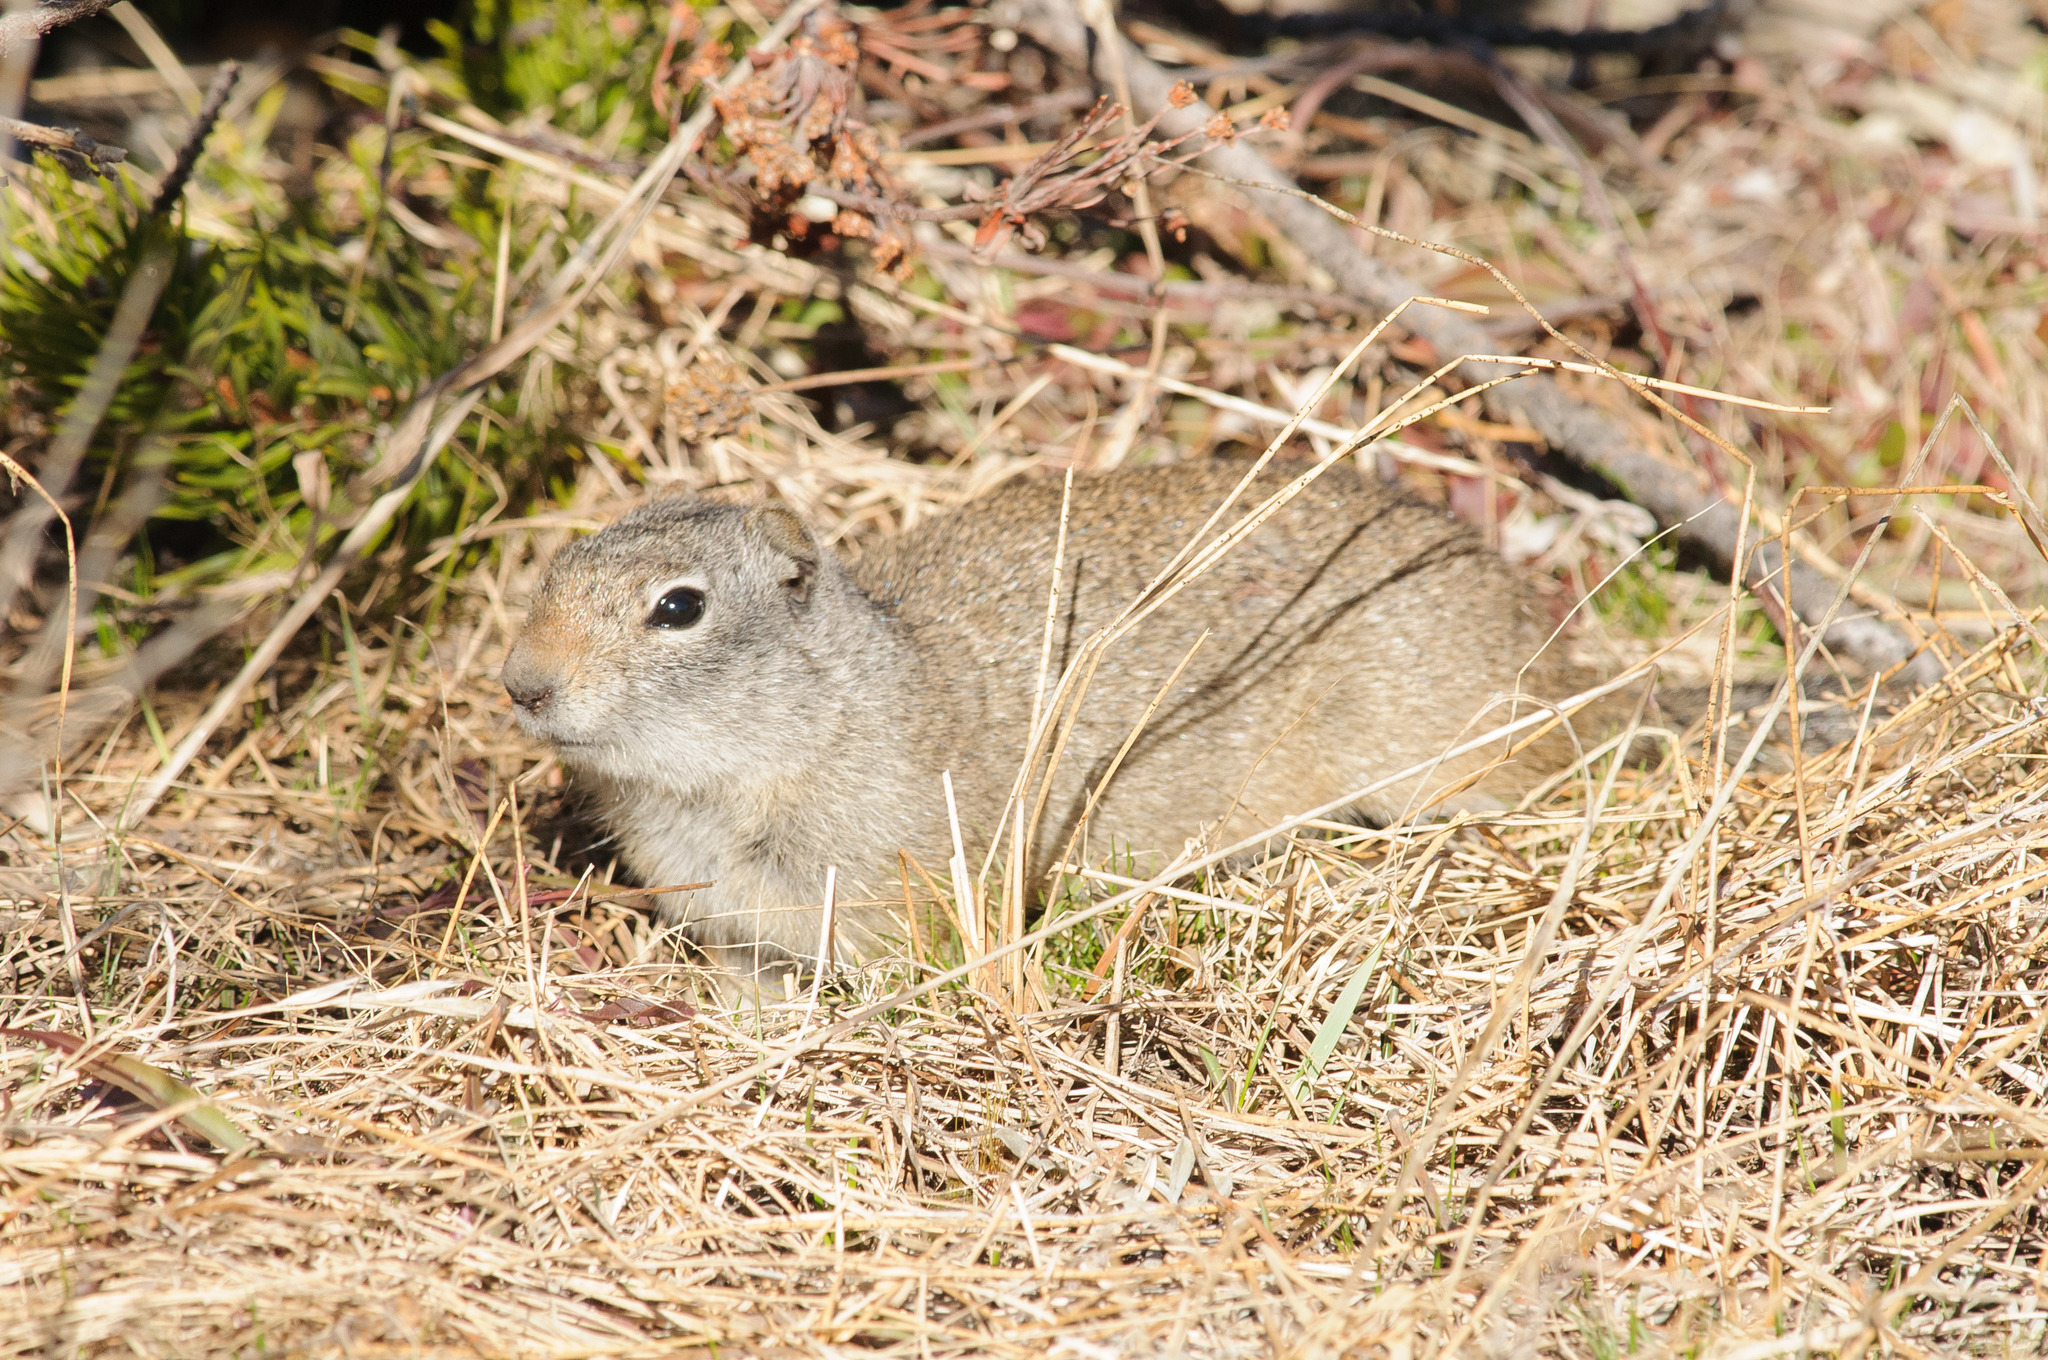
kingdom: Animalia
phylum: Chordata
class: Mammalia
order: Rodentia
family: Sciuridae
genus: Urocitellus
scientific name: Urocitellus armatus
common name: Uinta ground squirrel
